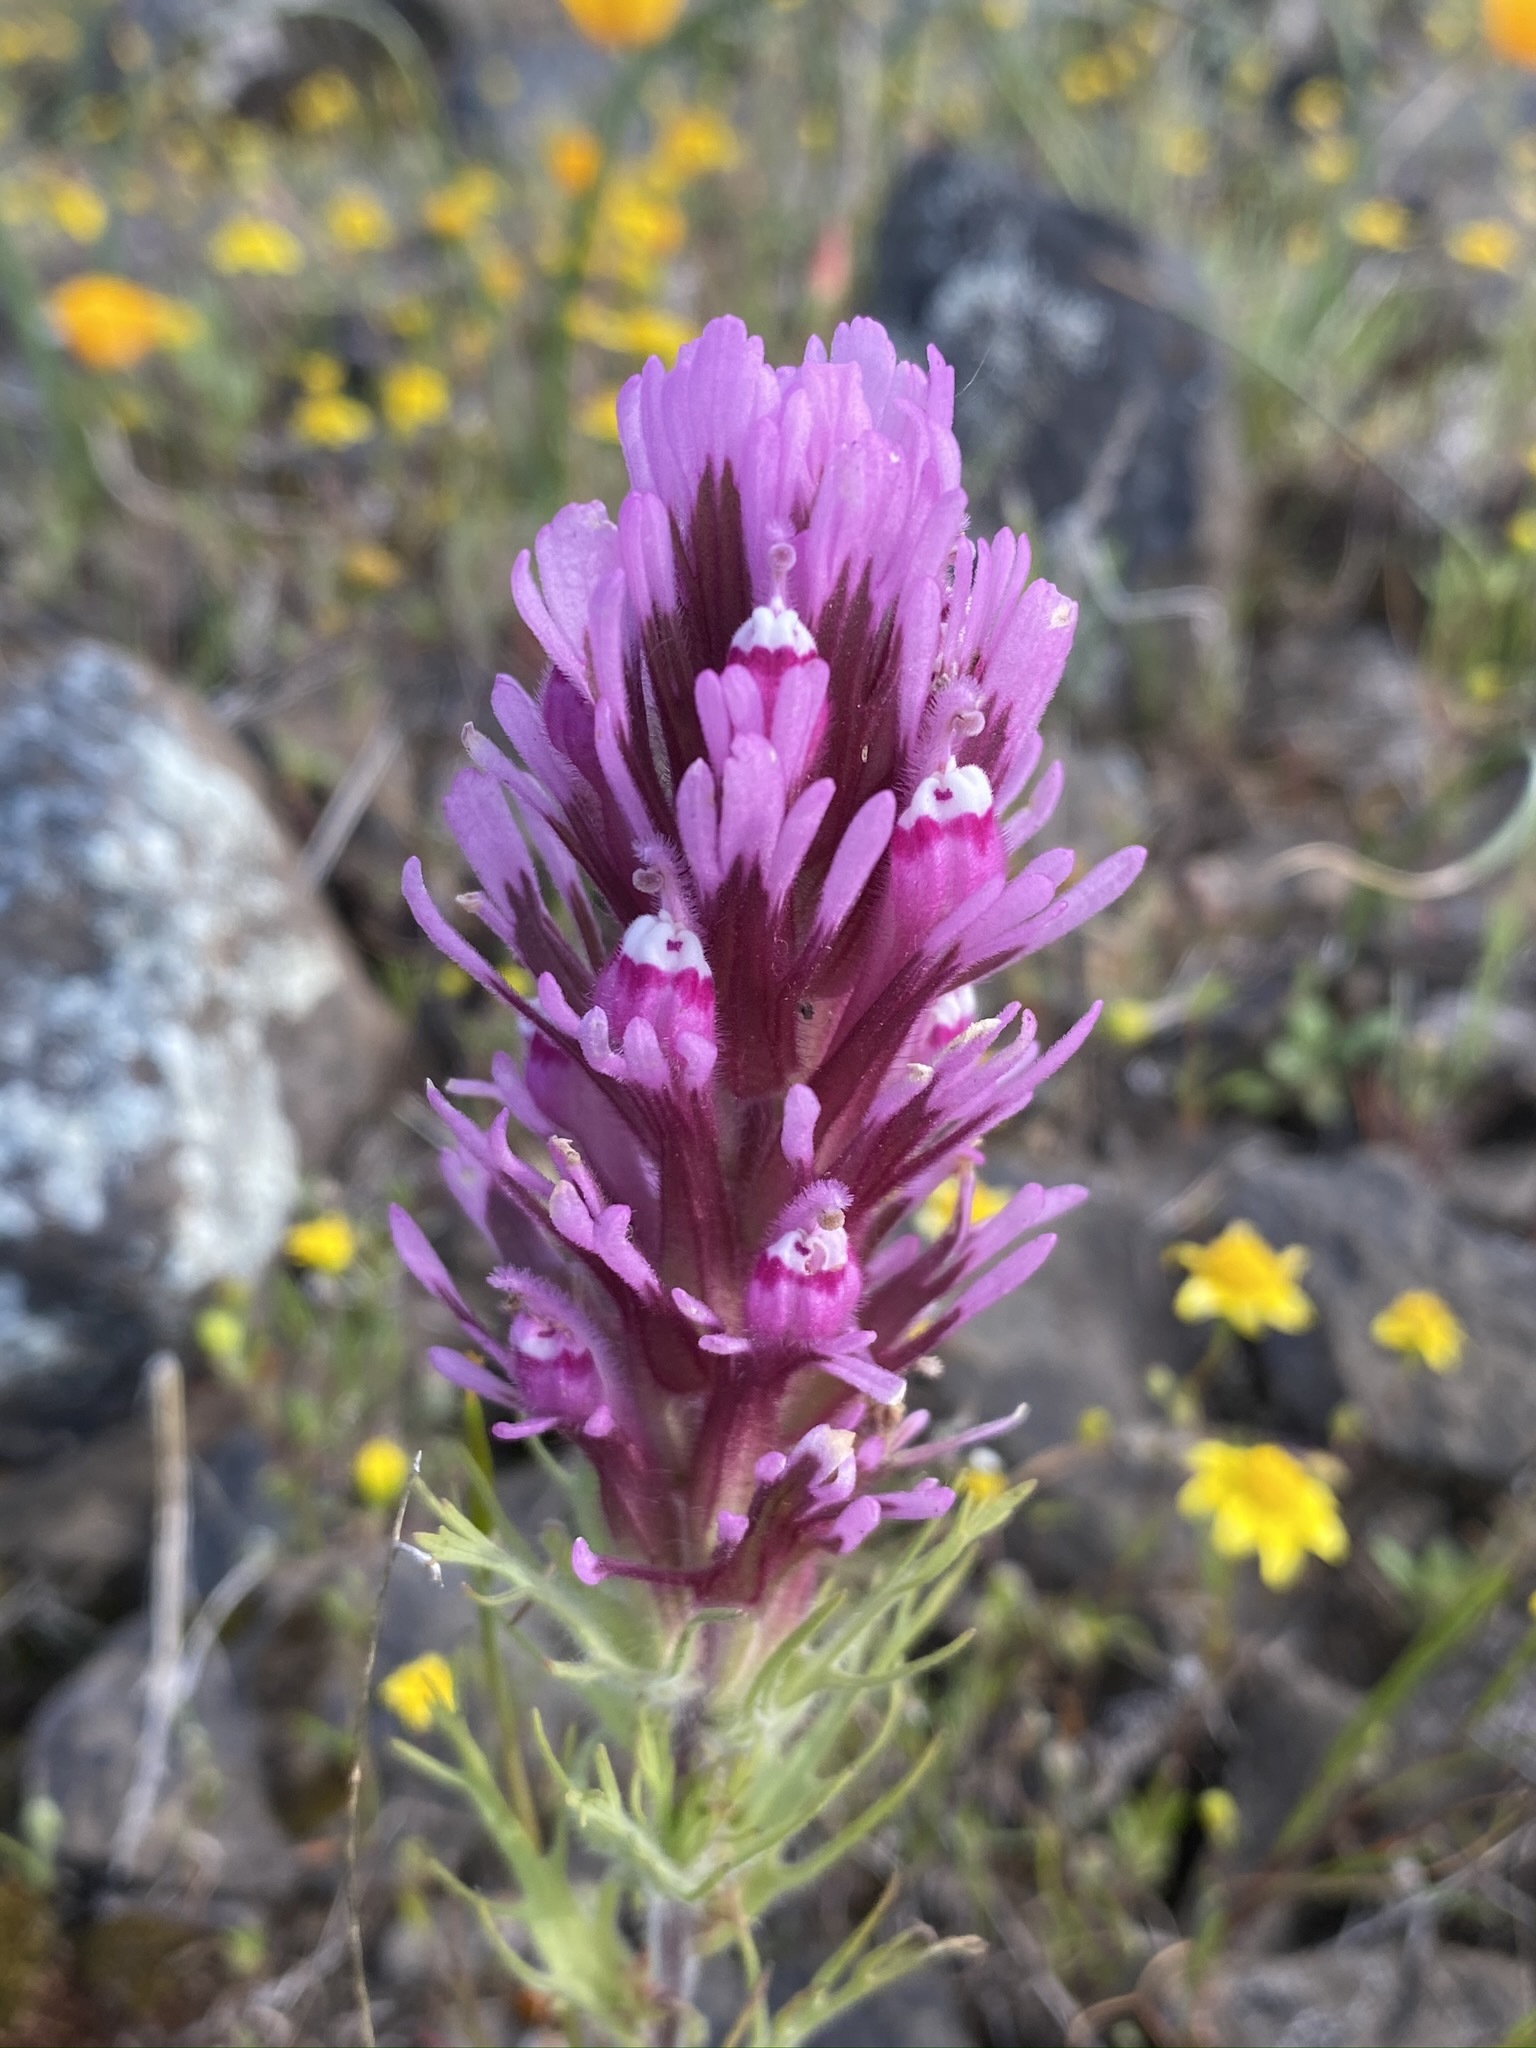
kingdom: Plantae
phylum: Tracheophyta
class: Magnoliopsida
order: Lamiales
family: Orobanchaceae
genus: Castilleja
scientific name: Castilleja exserta
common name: Purple owl-clover
